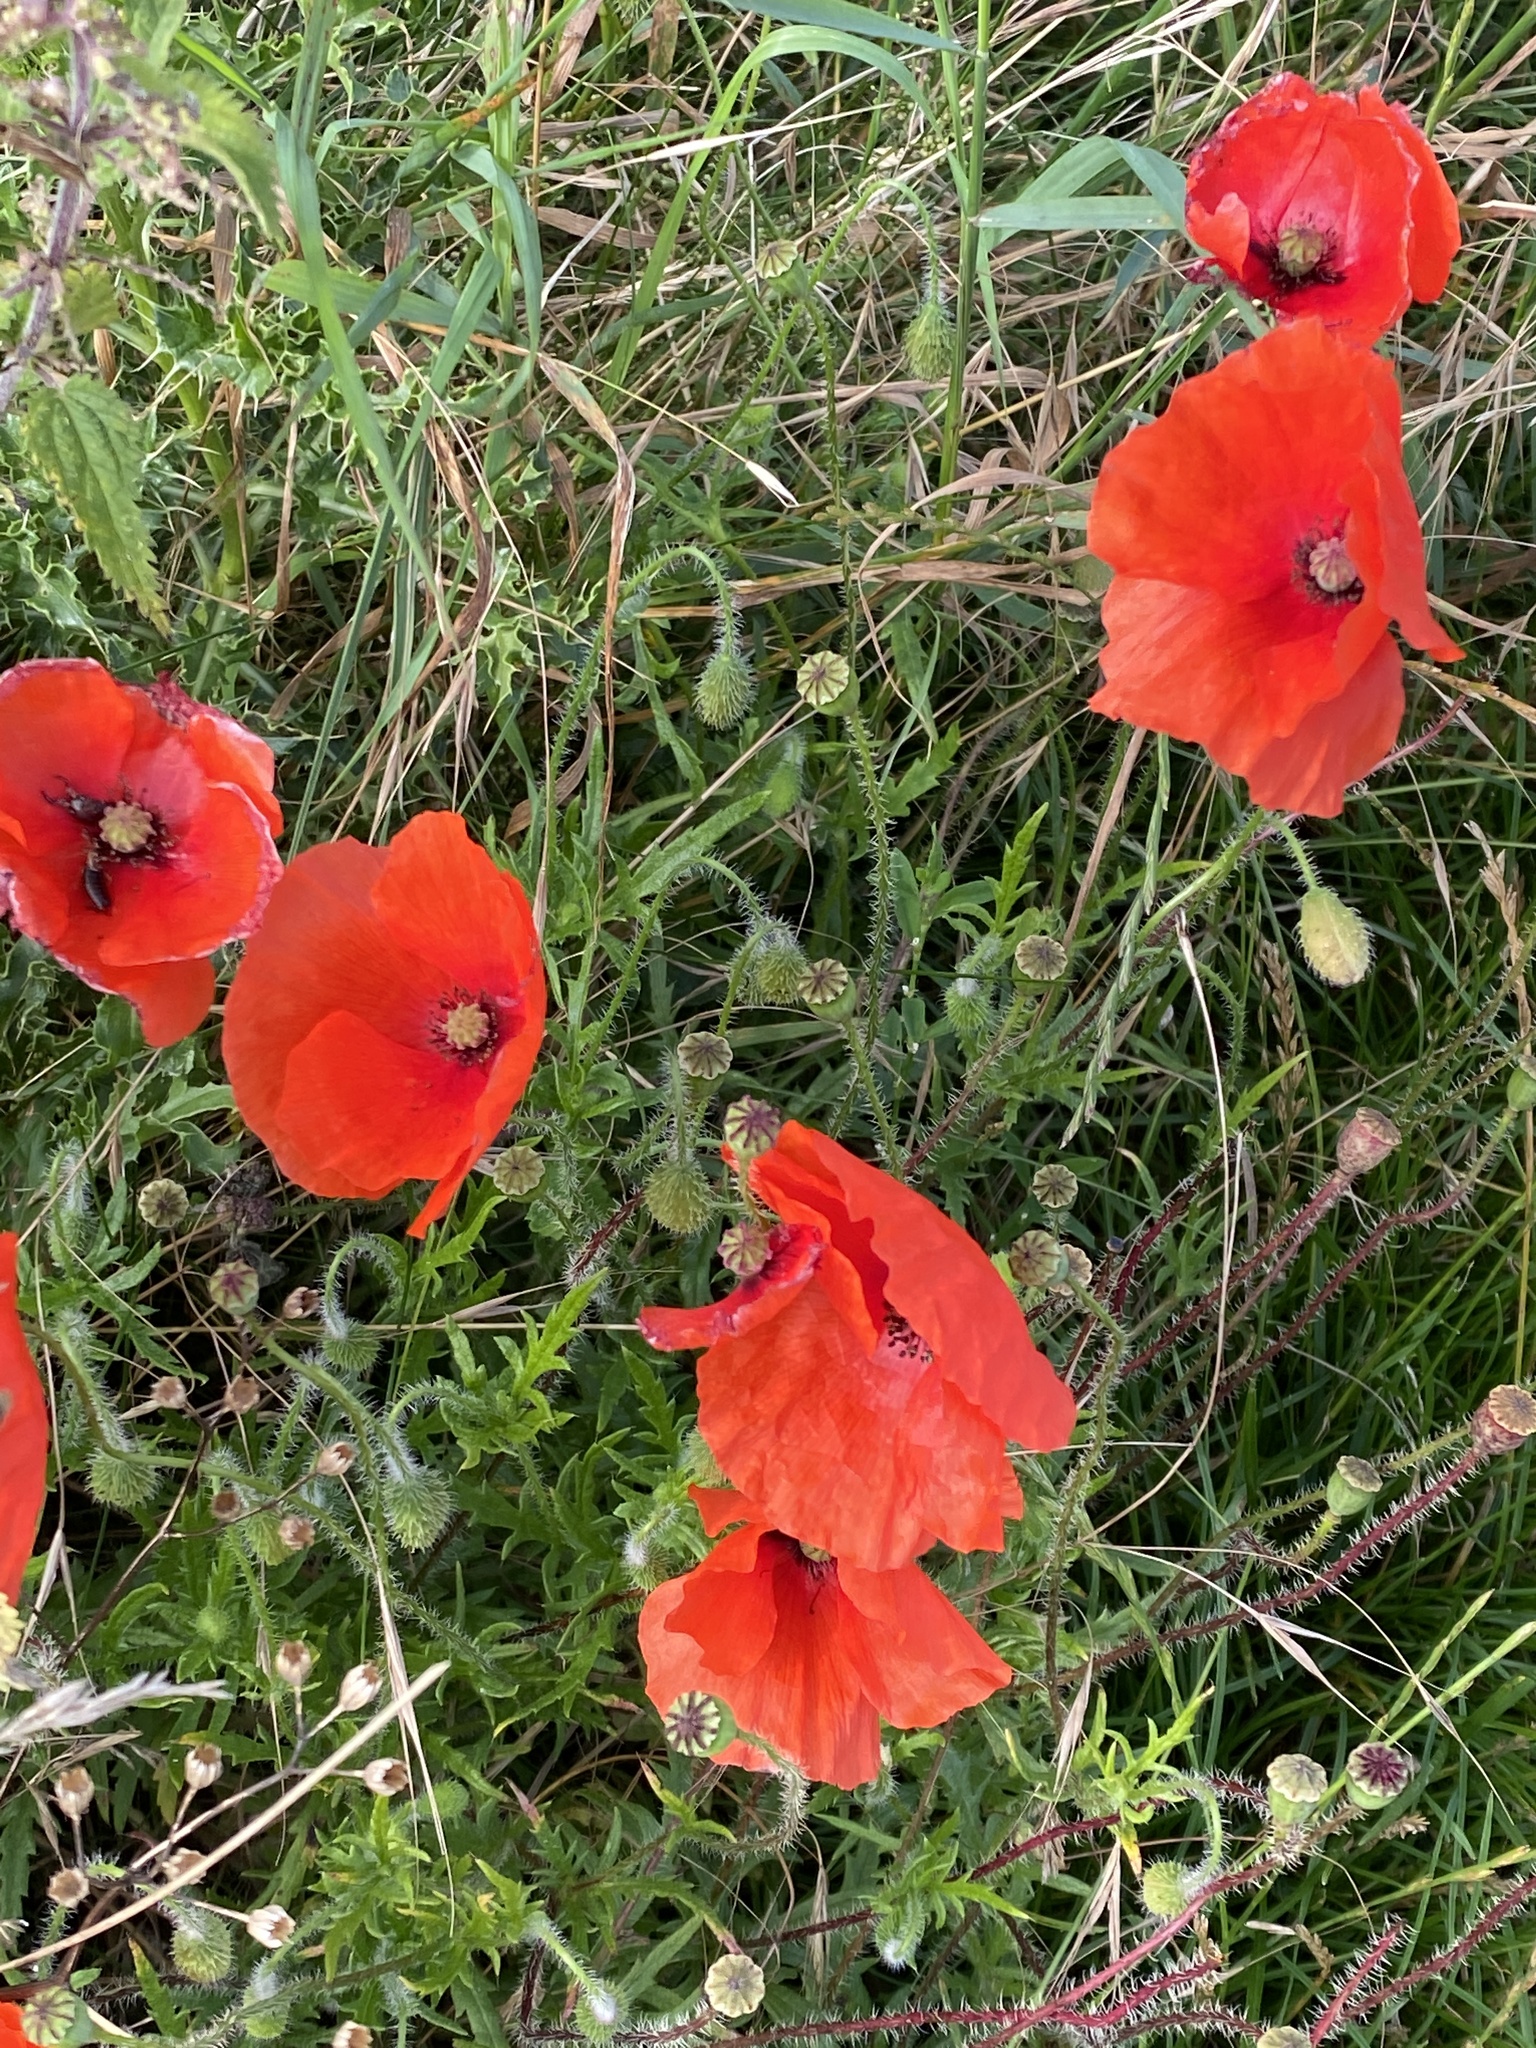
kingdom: Plantae
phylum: Tracheophyta
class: Magnoliopsida
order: Ranunculales
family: Papaveraceae
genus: Papaver
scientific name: Papaver rhoeas
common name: Corn poppy
